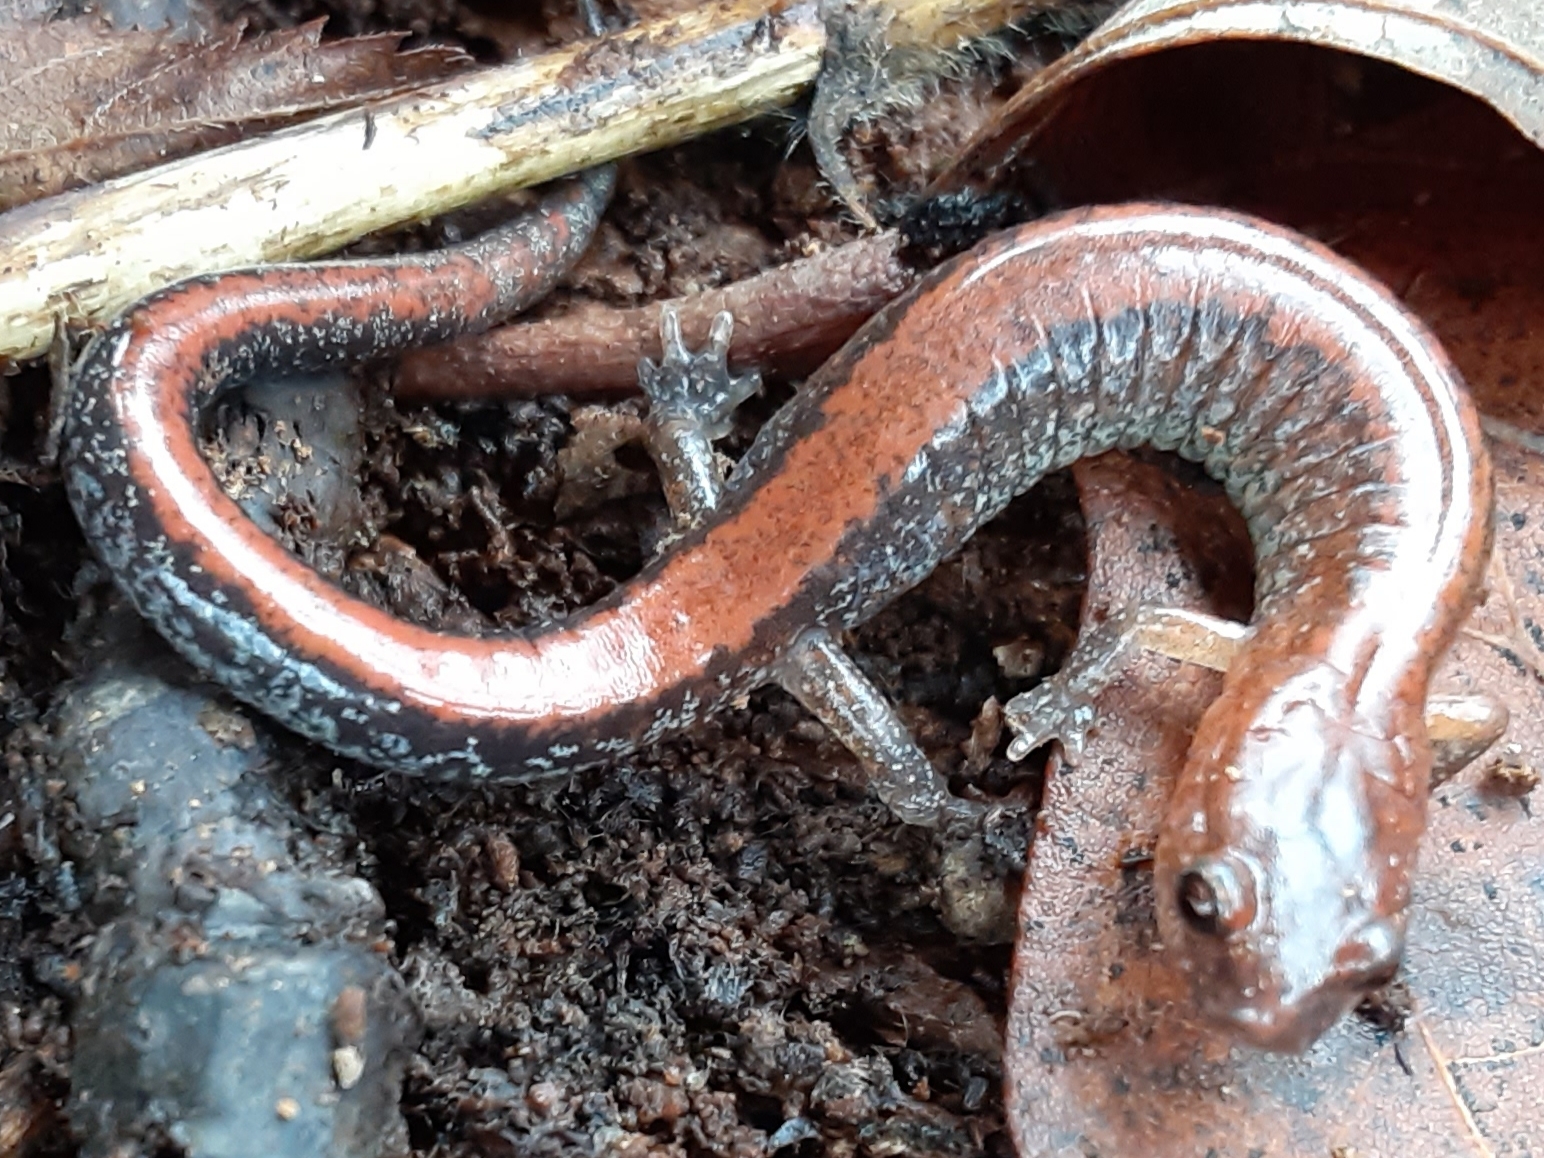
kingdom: Animalia
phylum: Chordata
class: Amphibia
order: Caudata
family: Plethodontidae
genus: Plethodon
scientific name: Plethodon cinereus
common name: Redback salamander
